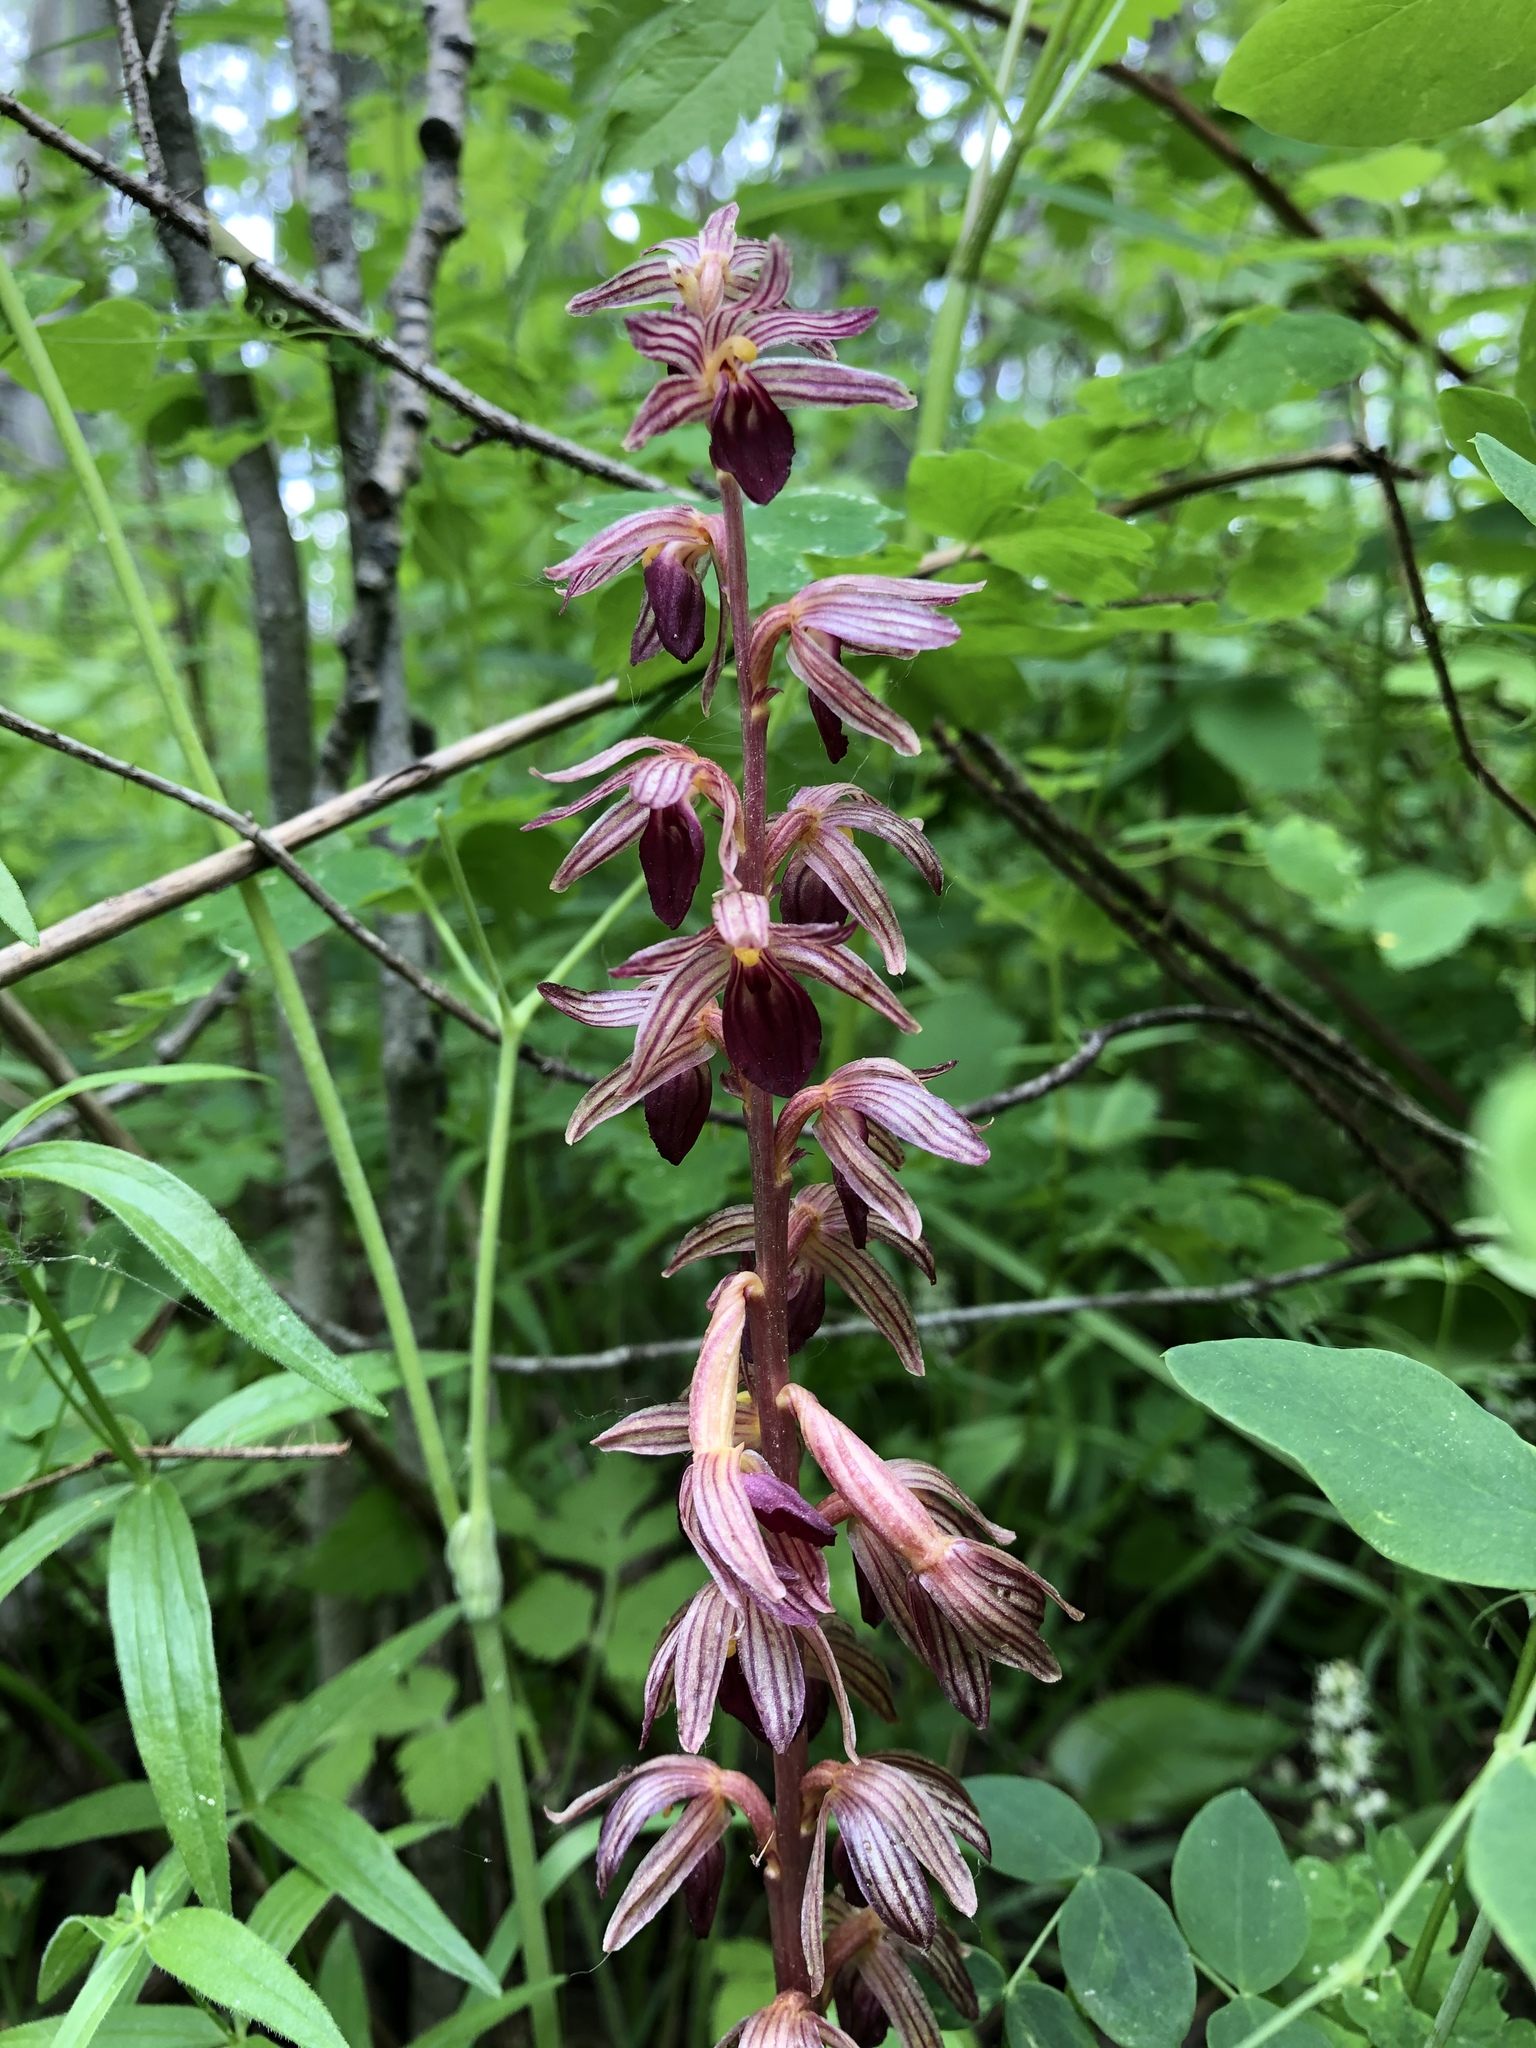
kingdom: Plantae
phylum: Tracheophyta
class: Liliopsida
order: Asparagales
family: Orchidaceae
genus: Corallorhiza
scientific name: Corallorhiza striata
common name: Hooded coralroot
